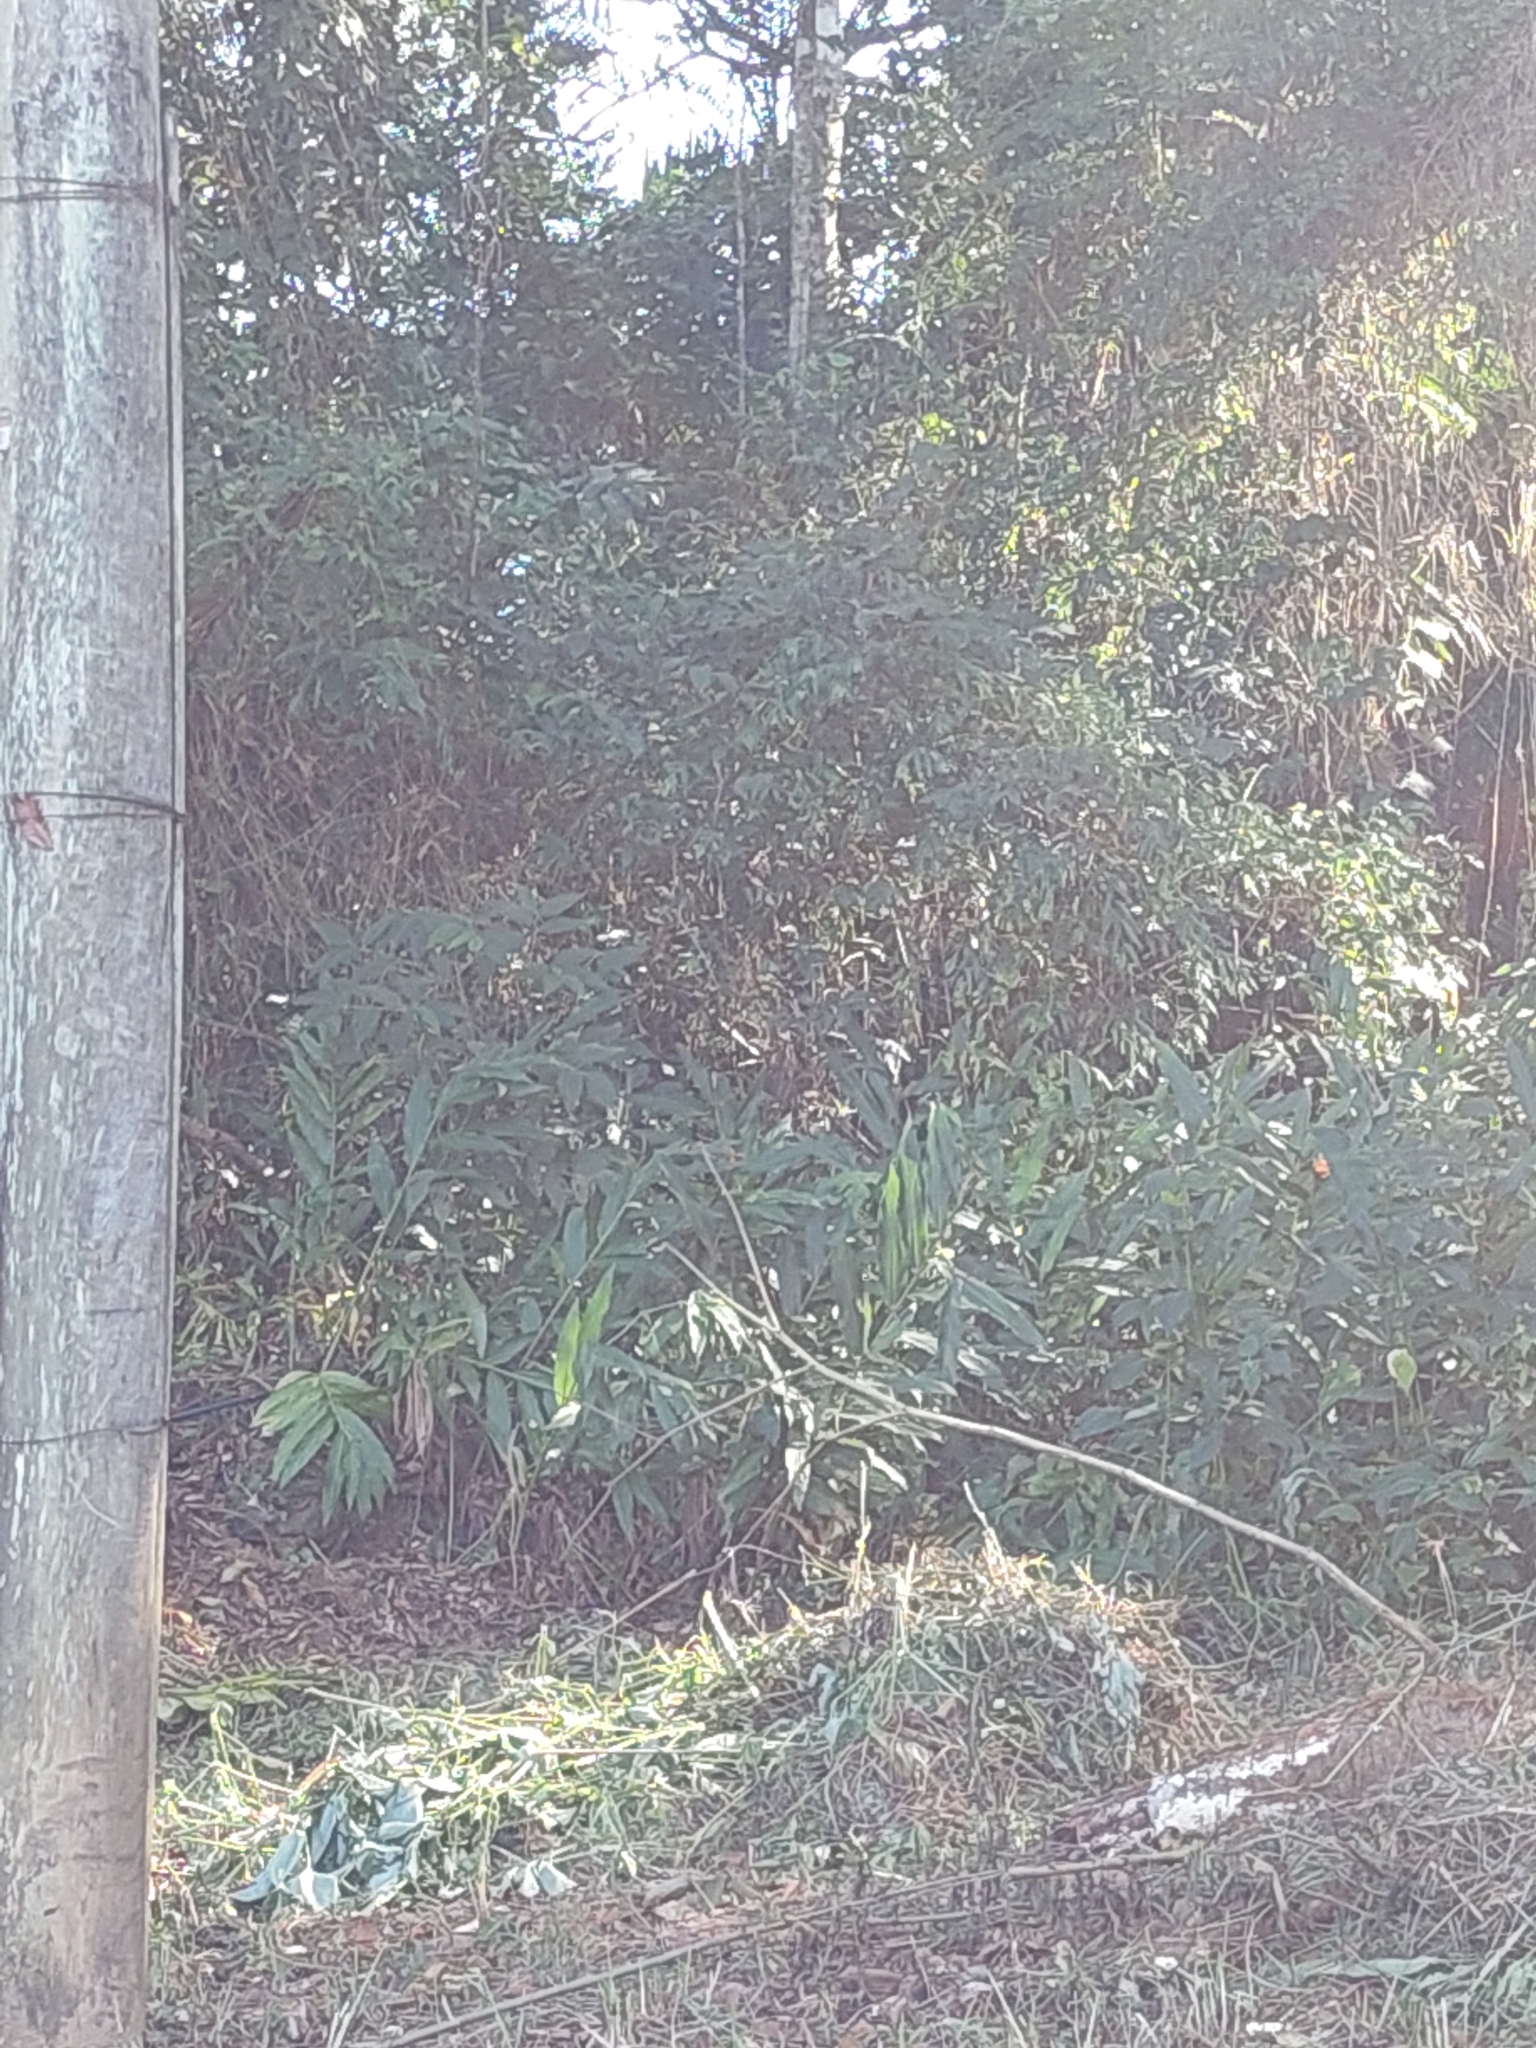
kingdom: Plantae
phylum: Tracheophyta
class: Liliopsida
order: Zingiberales
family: Zingiberaceae
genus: Hedychium
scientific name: Hedychium coronarium
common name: White garland-lily
